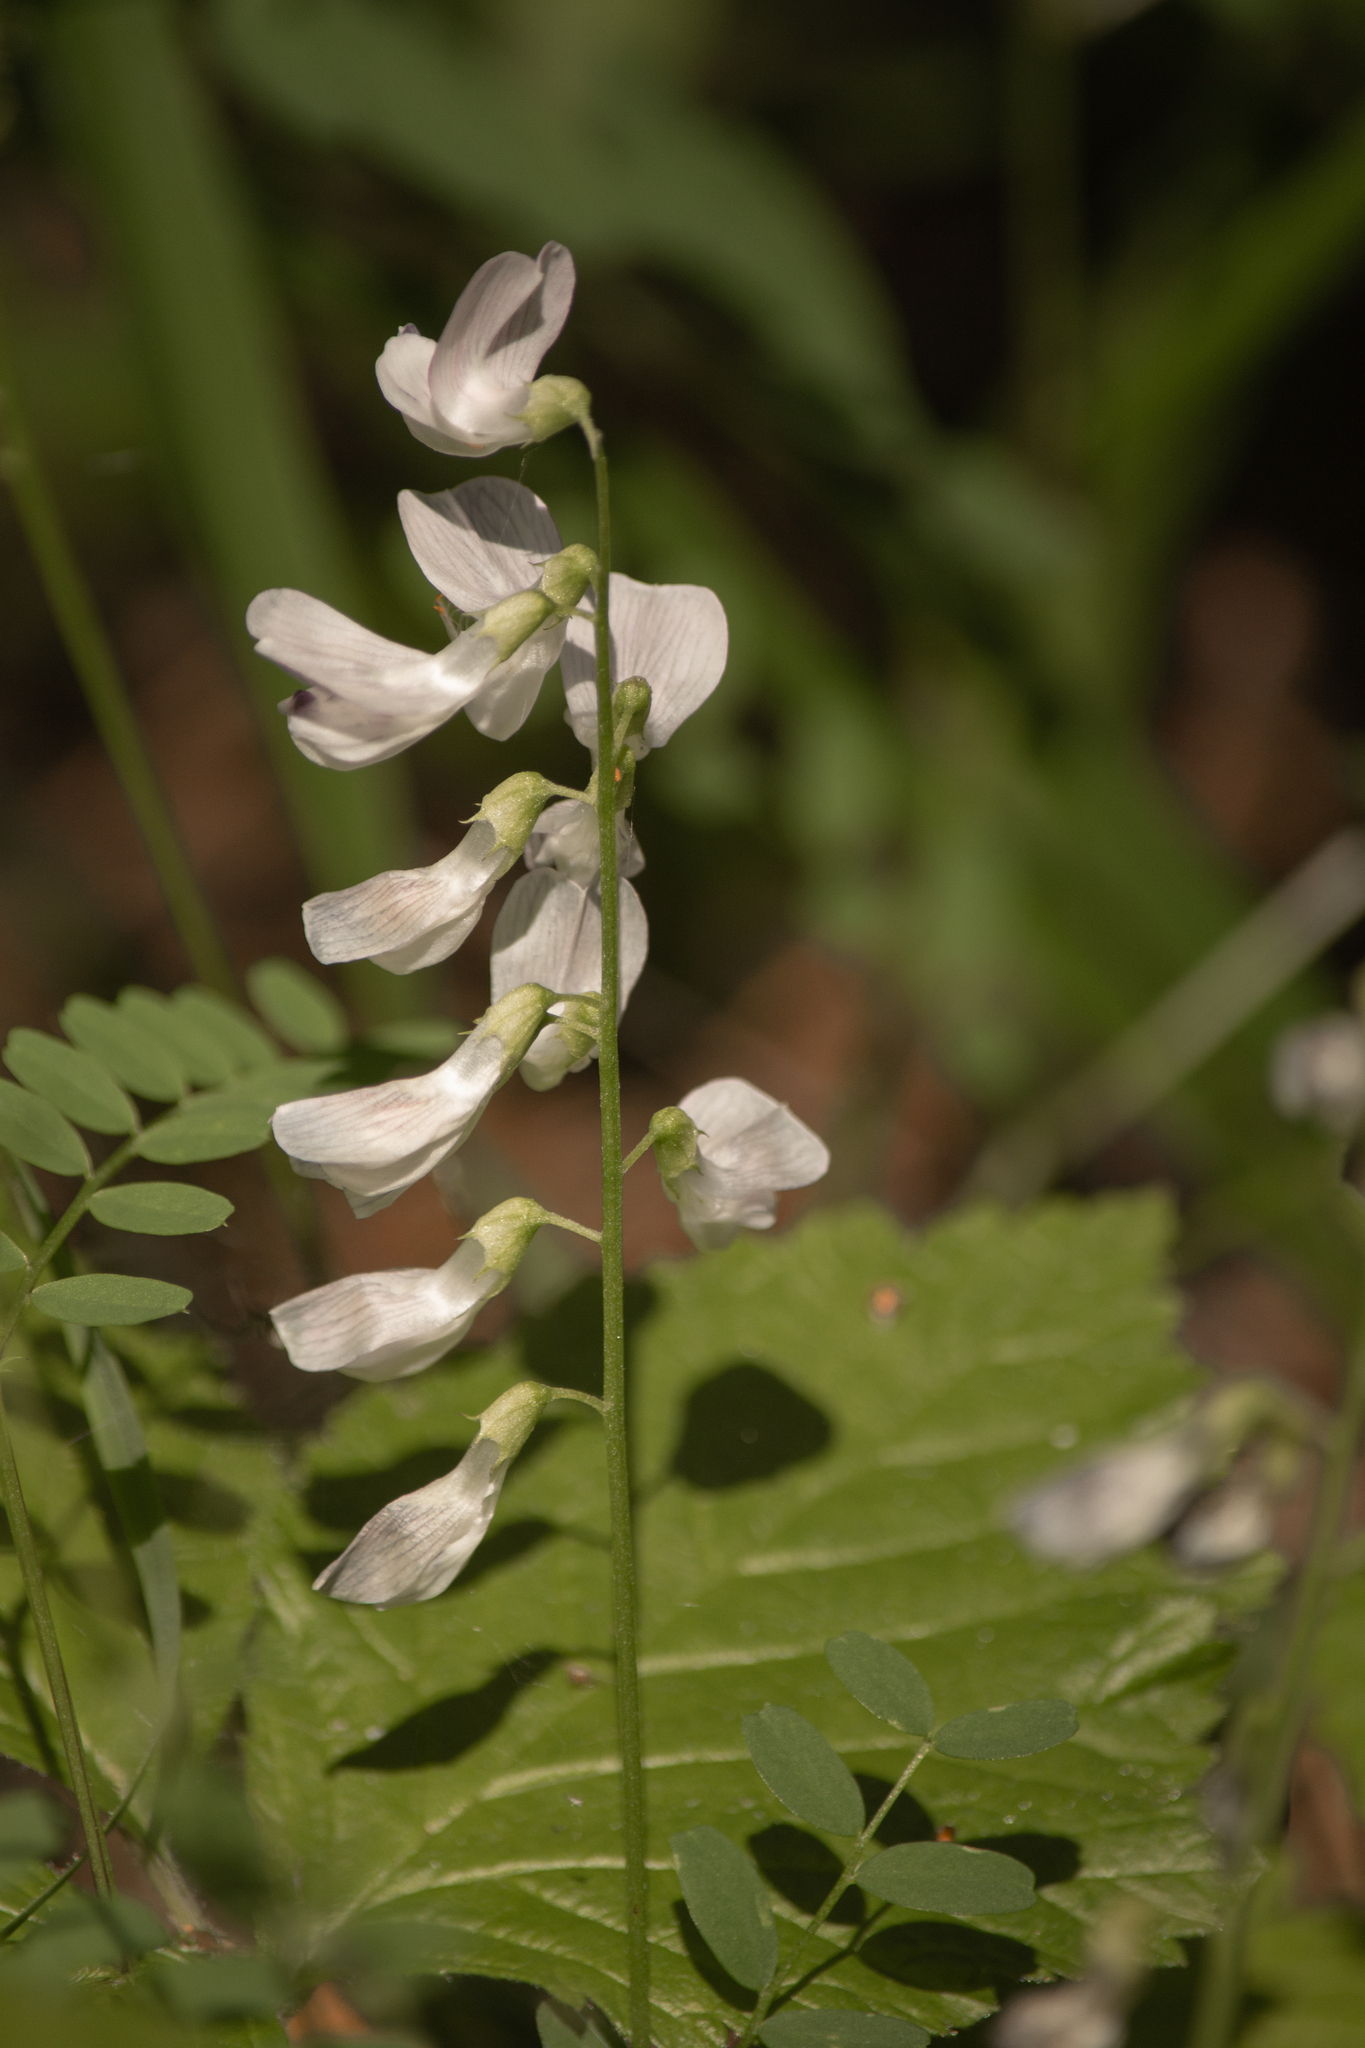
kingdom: Plantae
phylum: Tracheophyta
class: Magnoliopsida
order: Fabales
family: Fabaceae
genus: Vicia
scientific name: Vicia sylvatica
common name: Wood vetch
